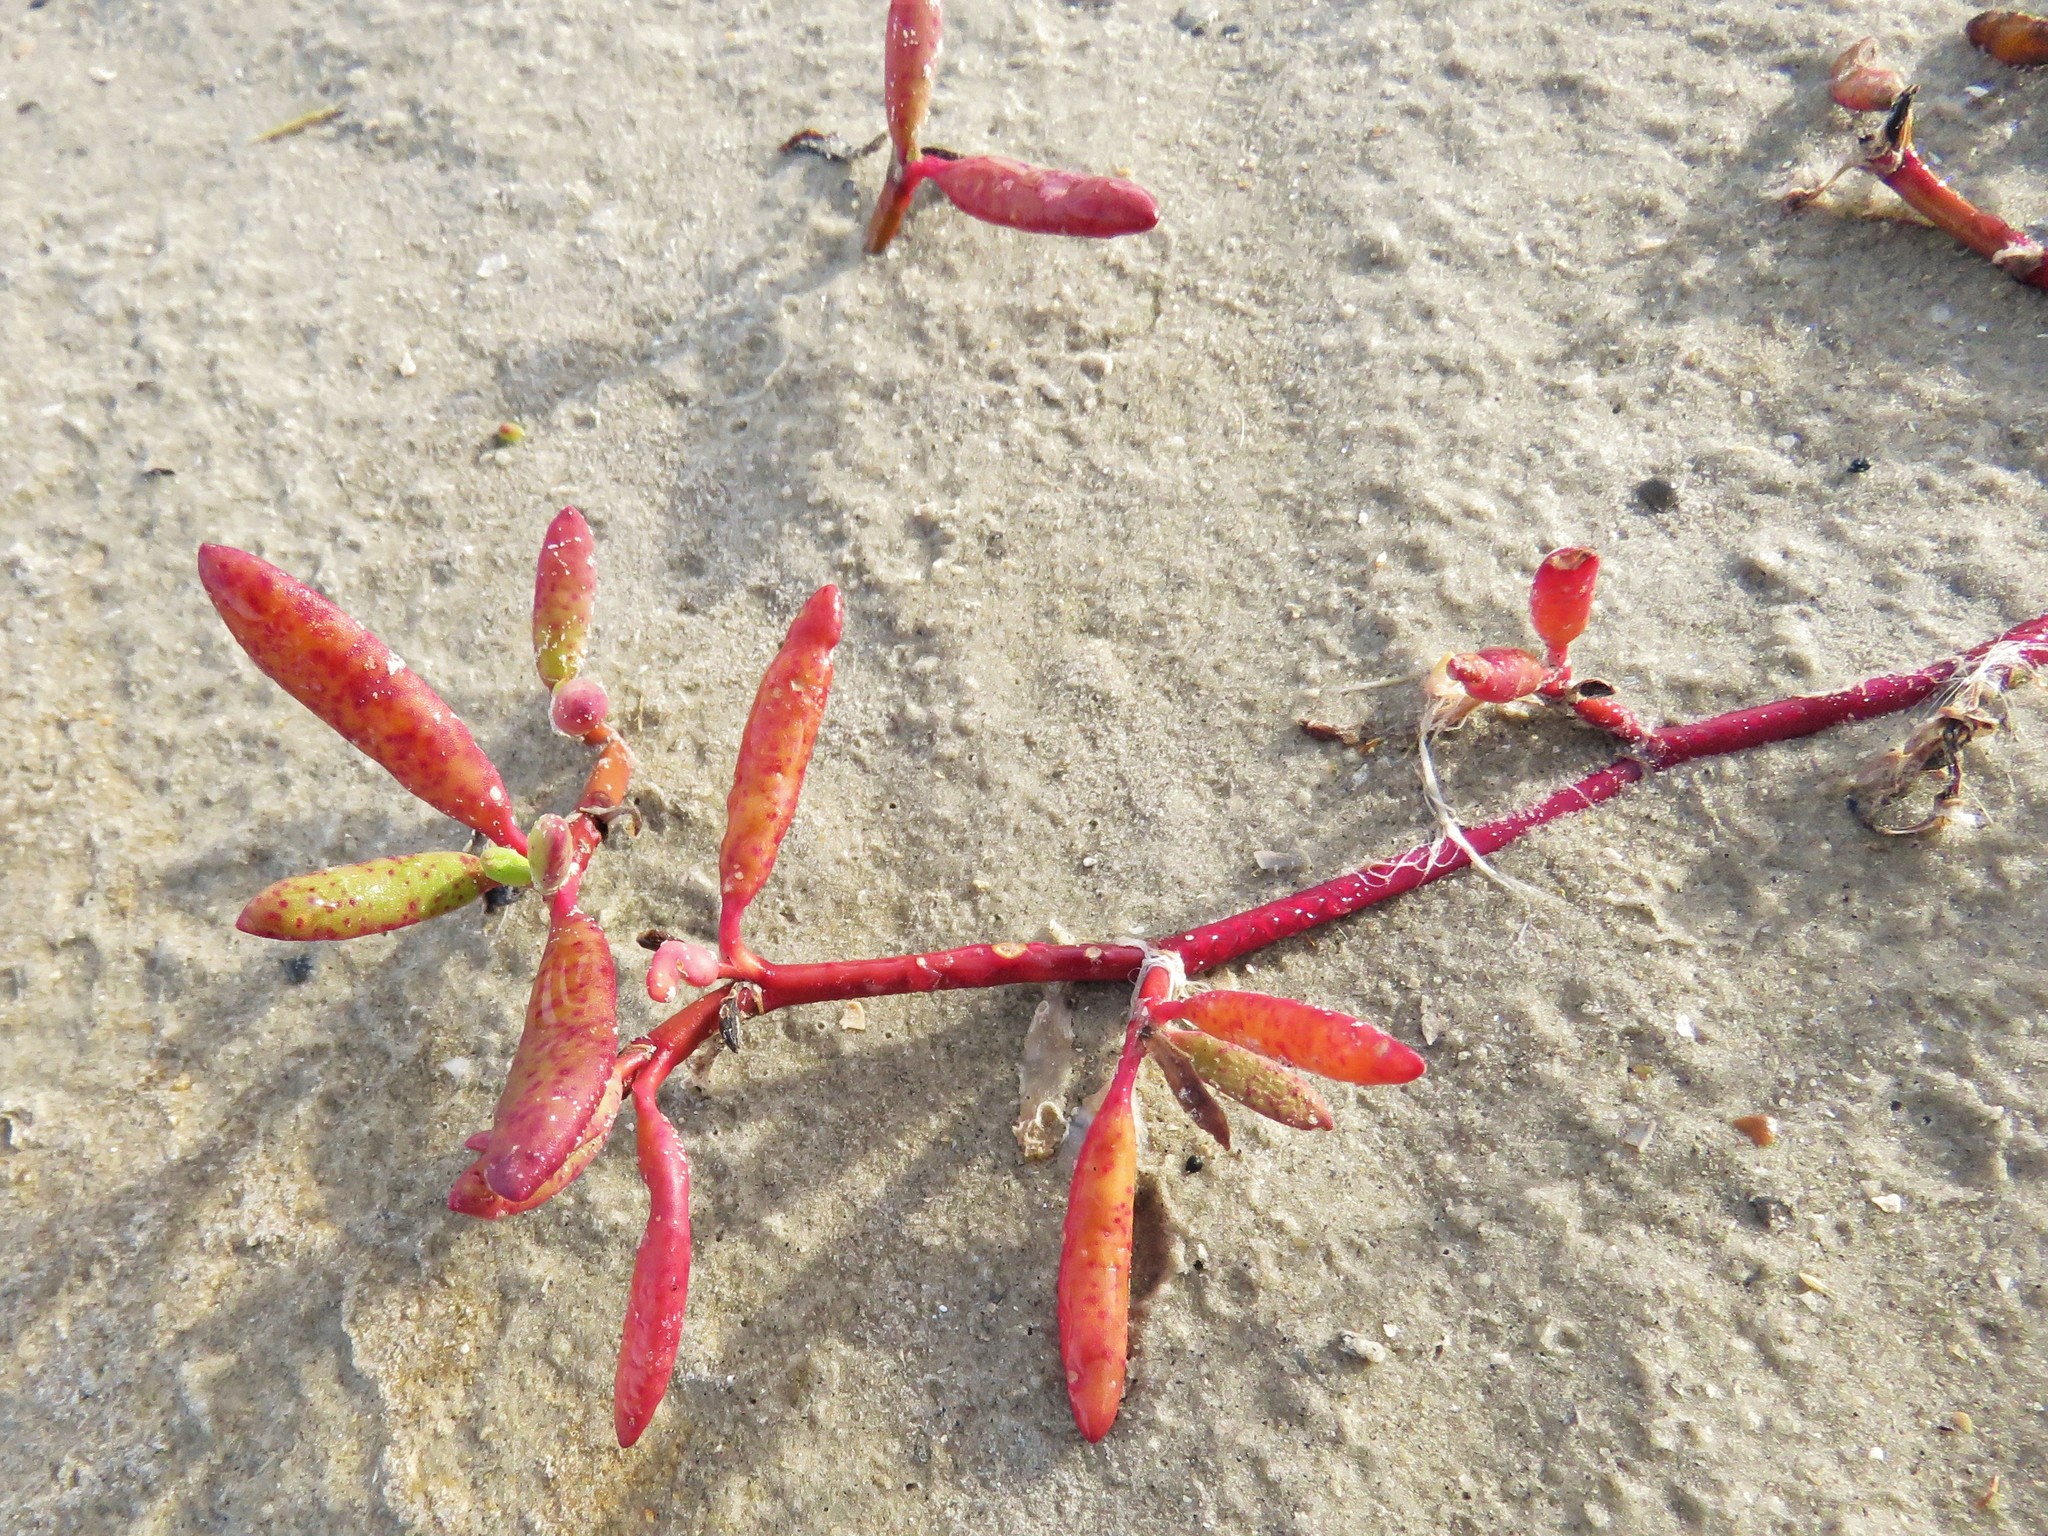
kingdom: Plantae
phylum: Tracheophyta
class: Magnoliopsida
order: Caryophyllales
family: Aizoaceae
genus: Sesuvium
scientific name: Sesuvium portulacastrum
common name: Sea-purslane
